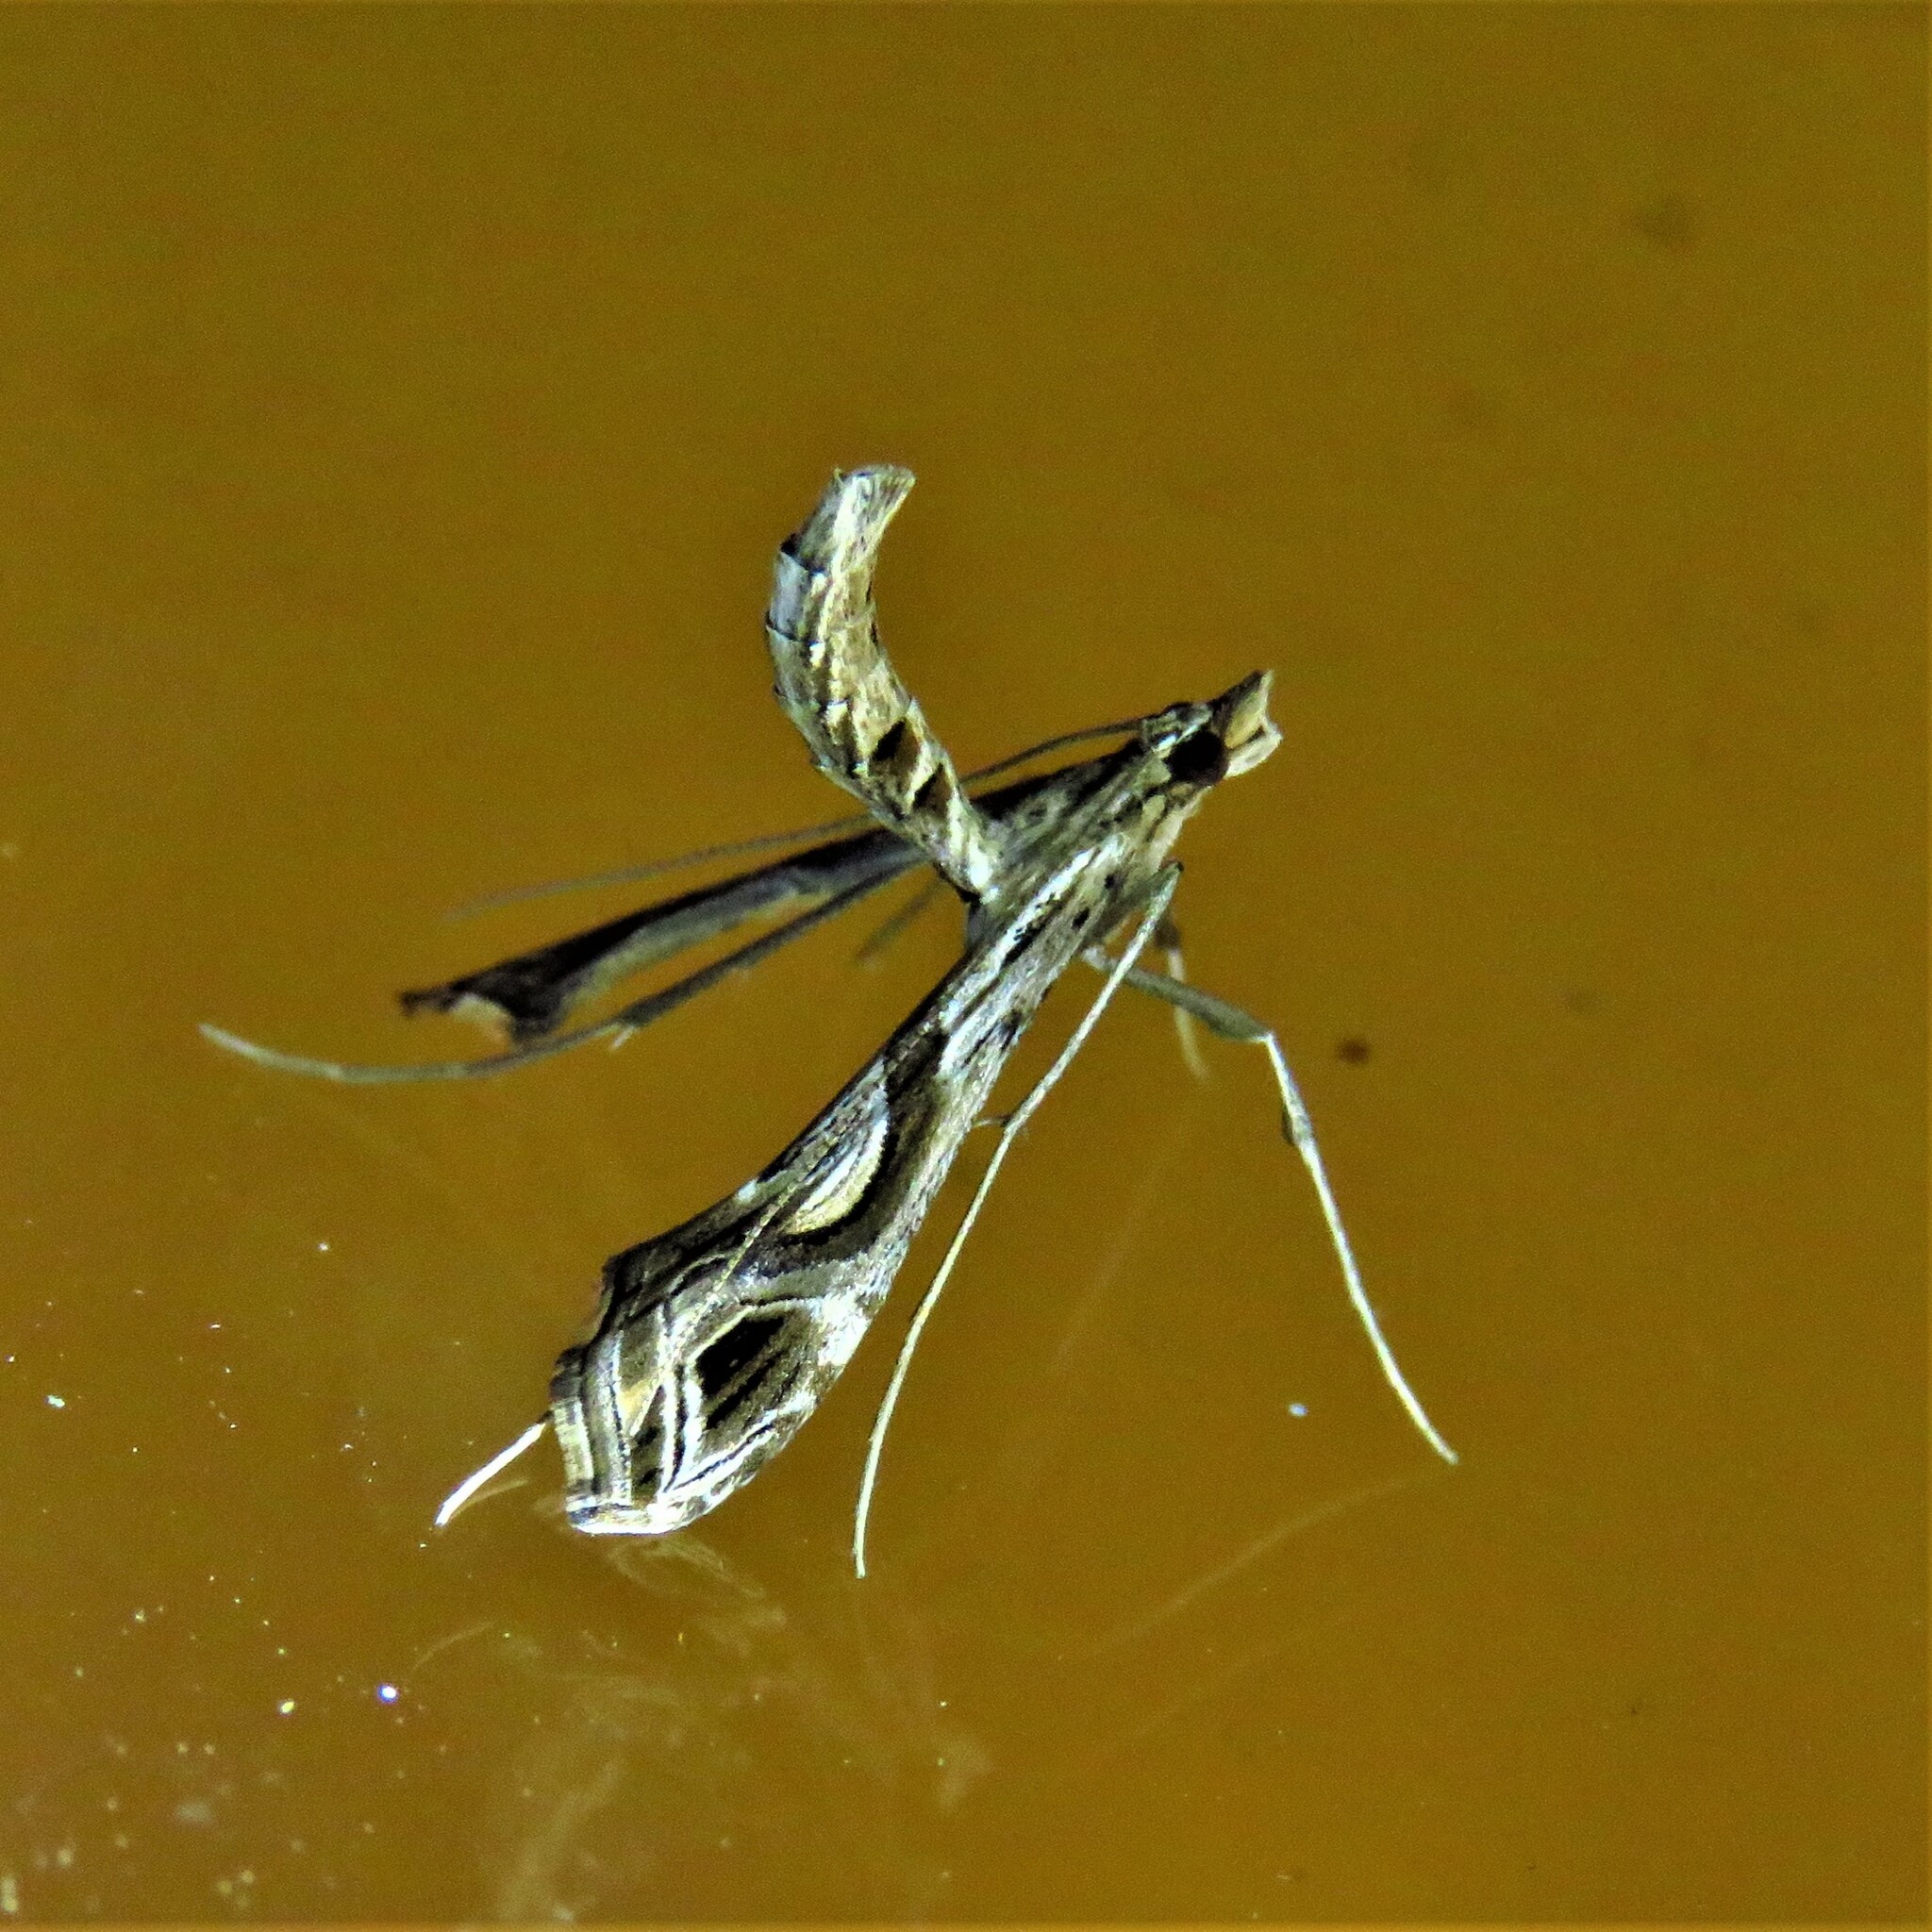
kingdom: Animalia
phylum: Arthropoda
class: Insecta
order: Lepidoptera
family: Crambidae
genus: Lineodes
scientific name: Lineodes integra
